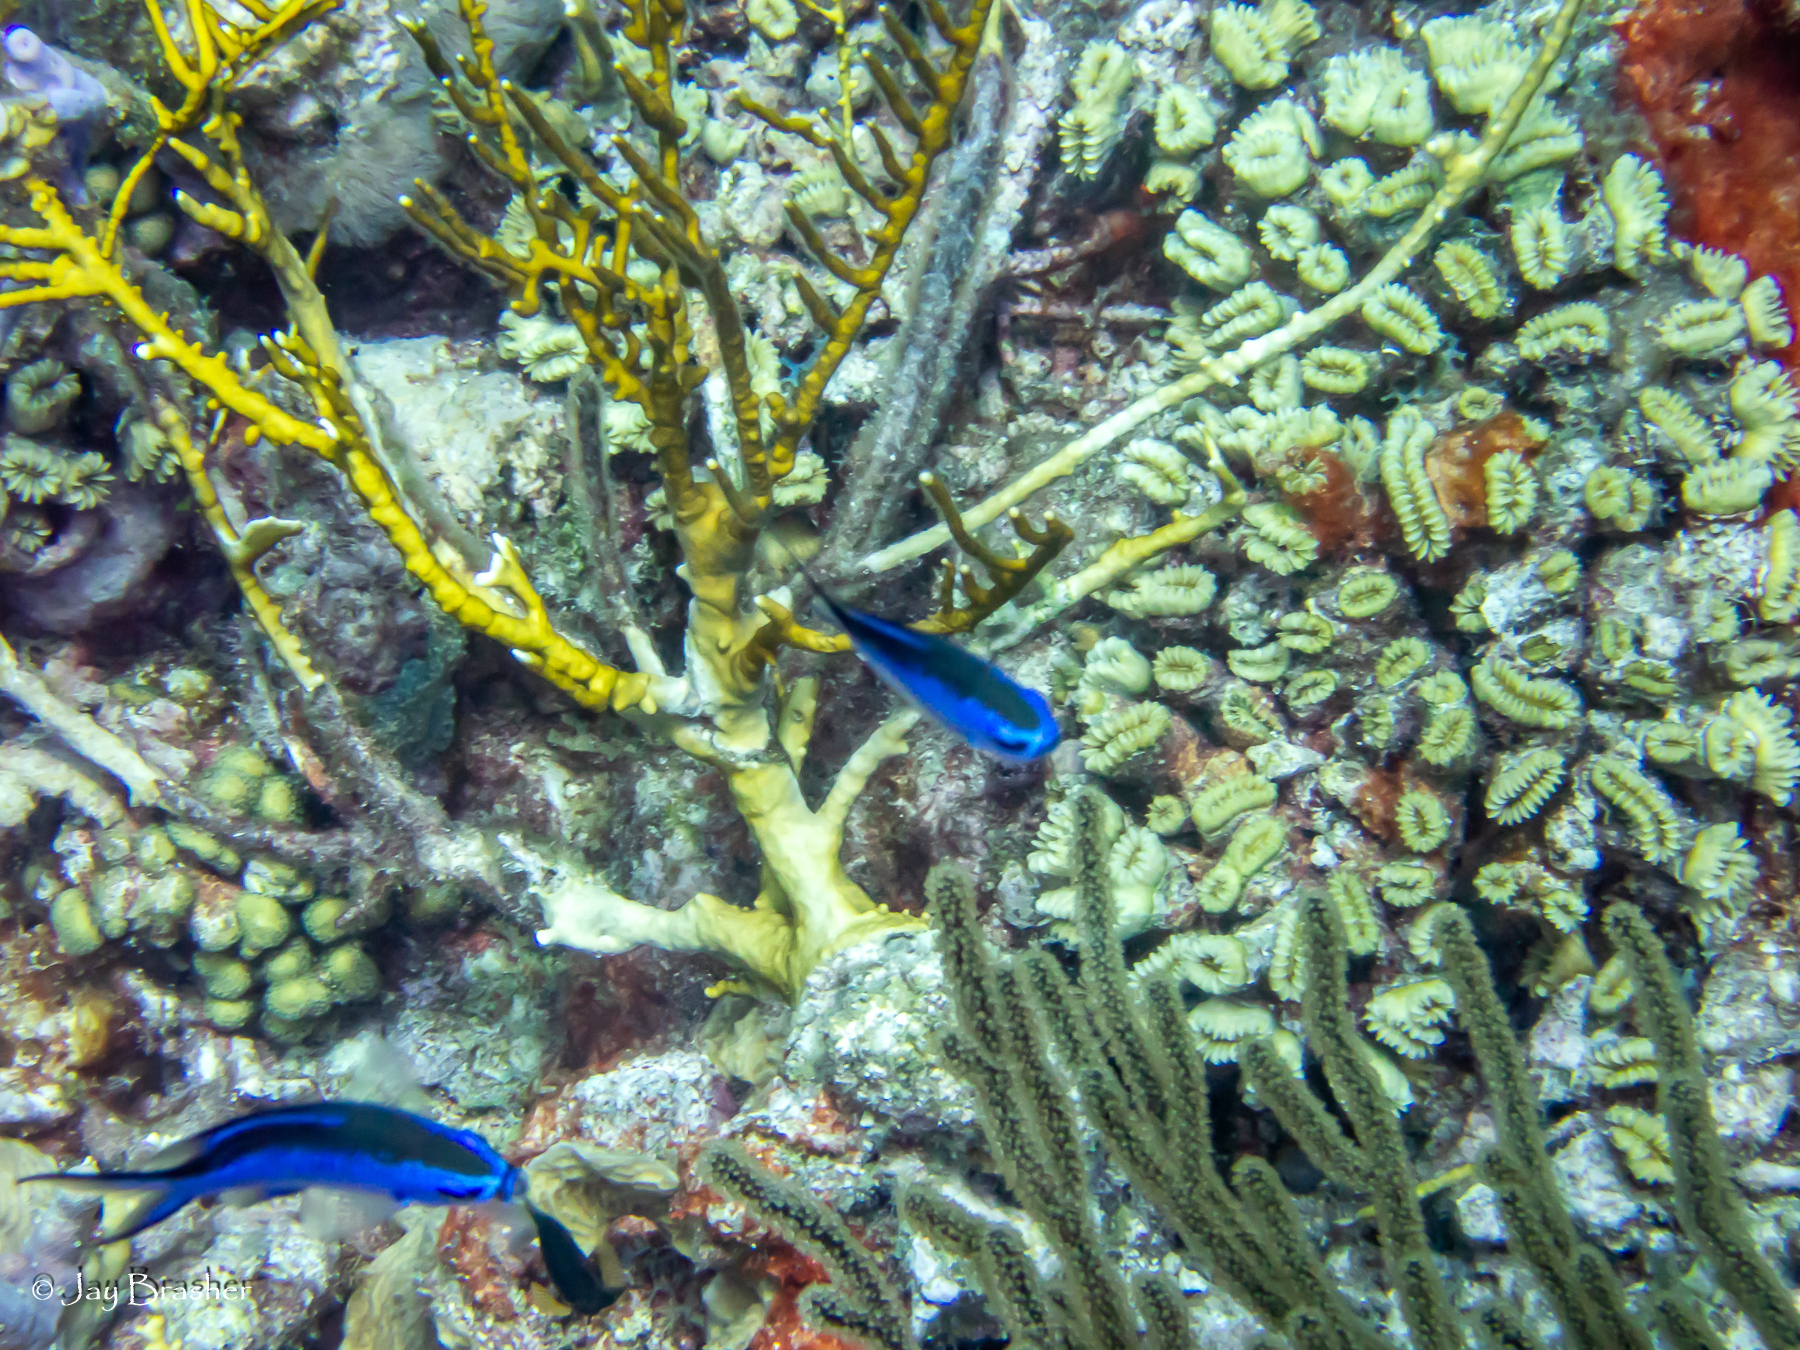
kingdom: Animalia
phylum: Chordata
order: Perciformes
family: Pomacentridae
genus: Chromis
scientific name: Chromis cyanea
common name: Blue chromis
